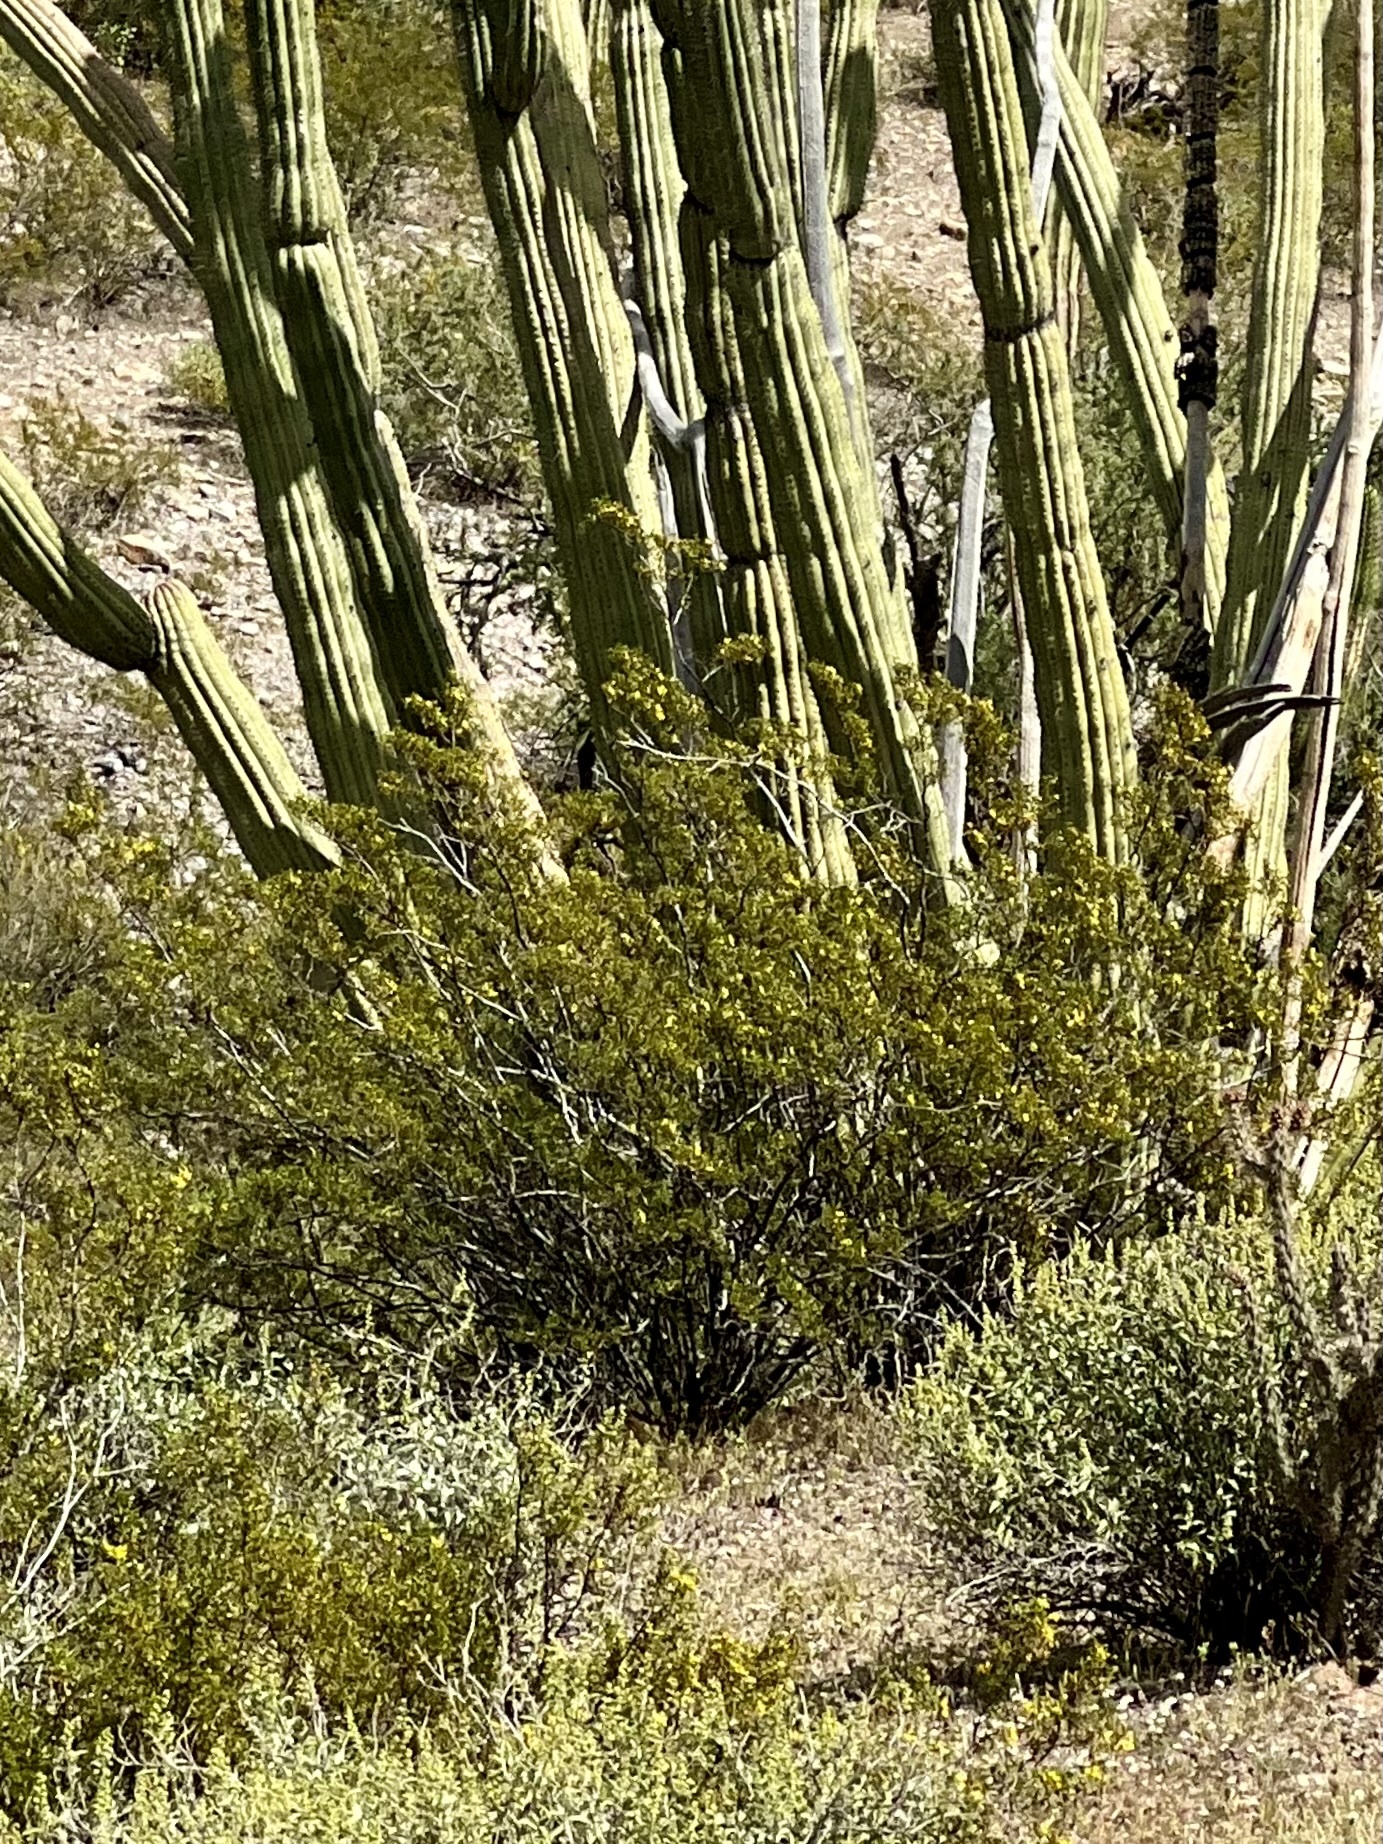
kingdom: Plantae
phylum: Tracheophyta
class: Magnoliopsida
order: Zygophyllales
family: Zygophyllaceae
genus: Larrea
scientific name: Larrea tridentata
